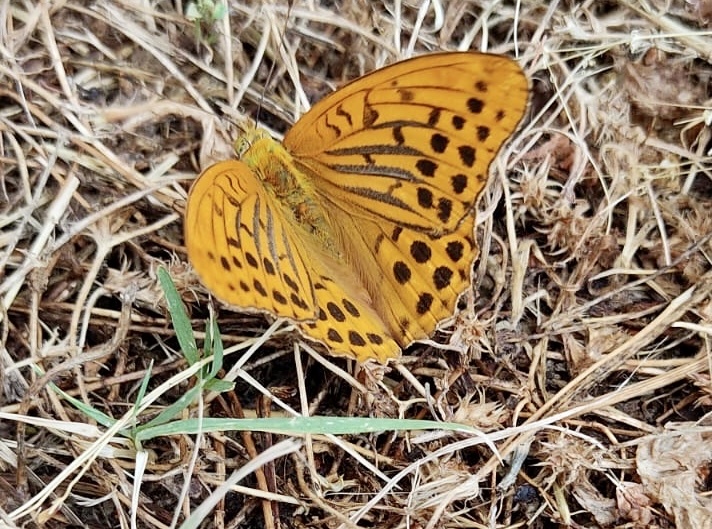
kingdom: Animalia
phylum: Arthropoda
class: Insecta
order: Lepidoptera
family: Nymphalidae
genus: Argynnis
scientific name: Argynnis paphia
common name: Silver-washed fritillary
